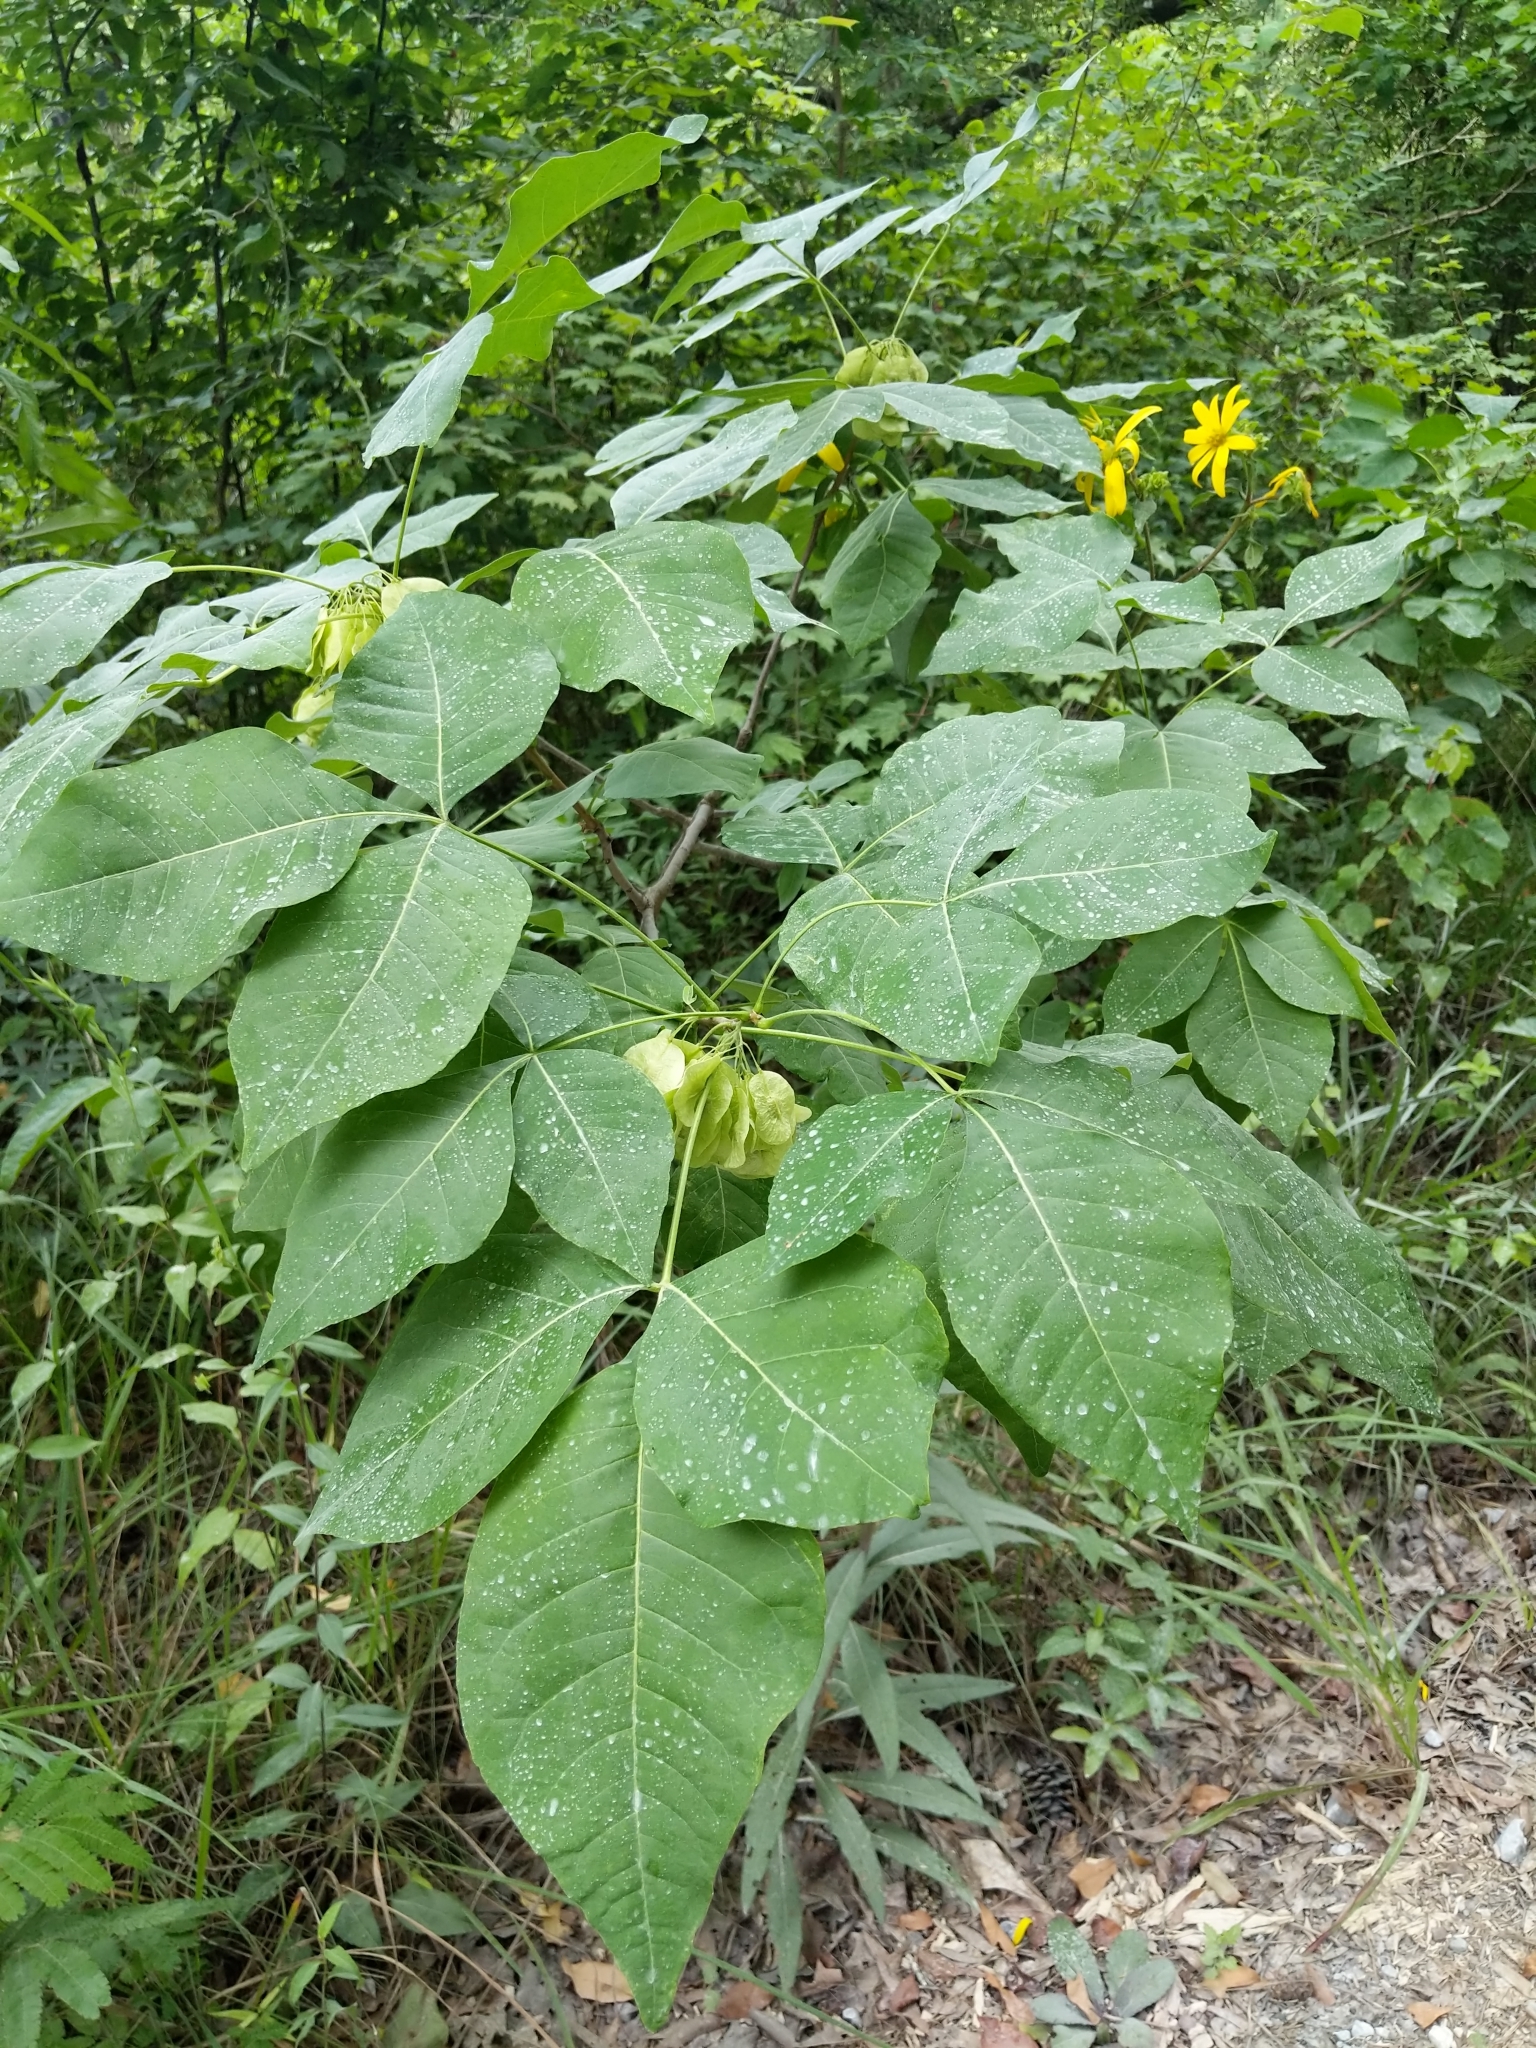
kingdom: Plantae
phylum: Tracheophyta
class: Magnoliopsida
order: Sapindales
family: Rutaceae
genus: Ptelea
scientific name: Ptelea trifoliata
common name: Common hop-tree
